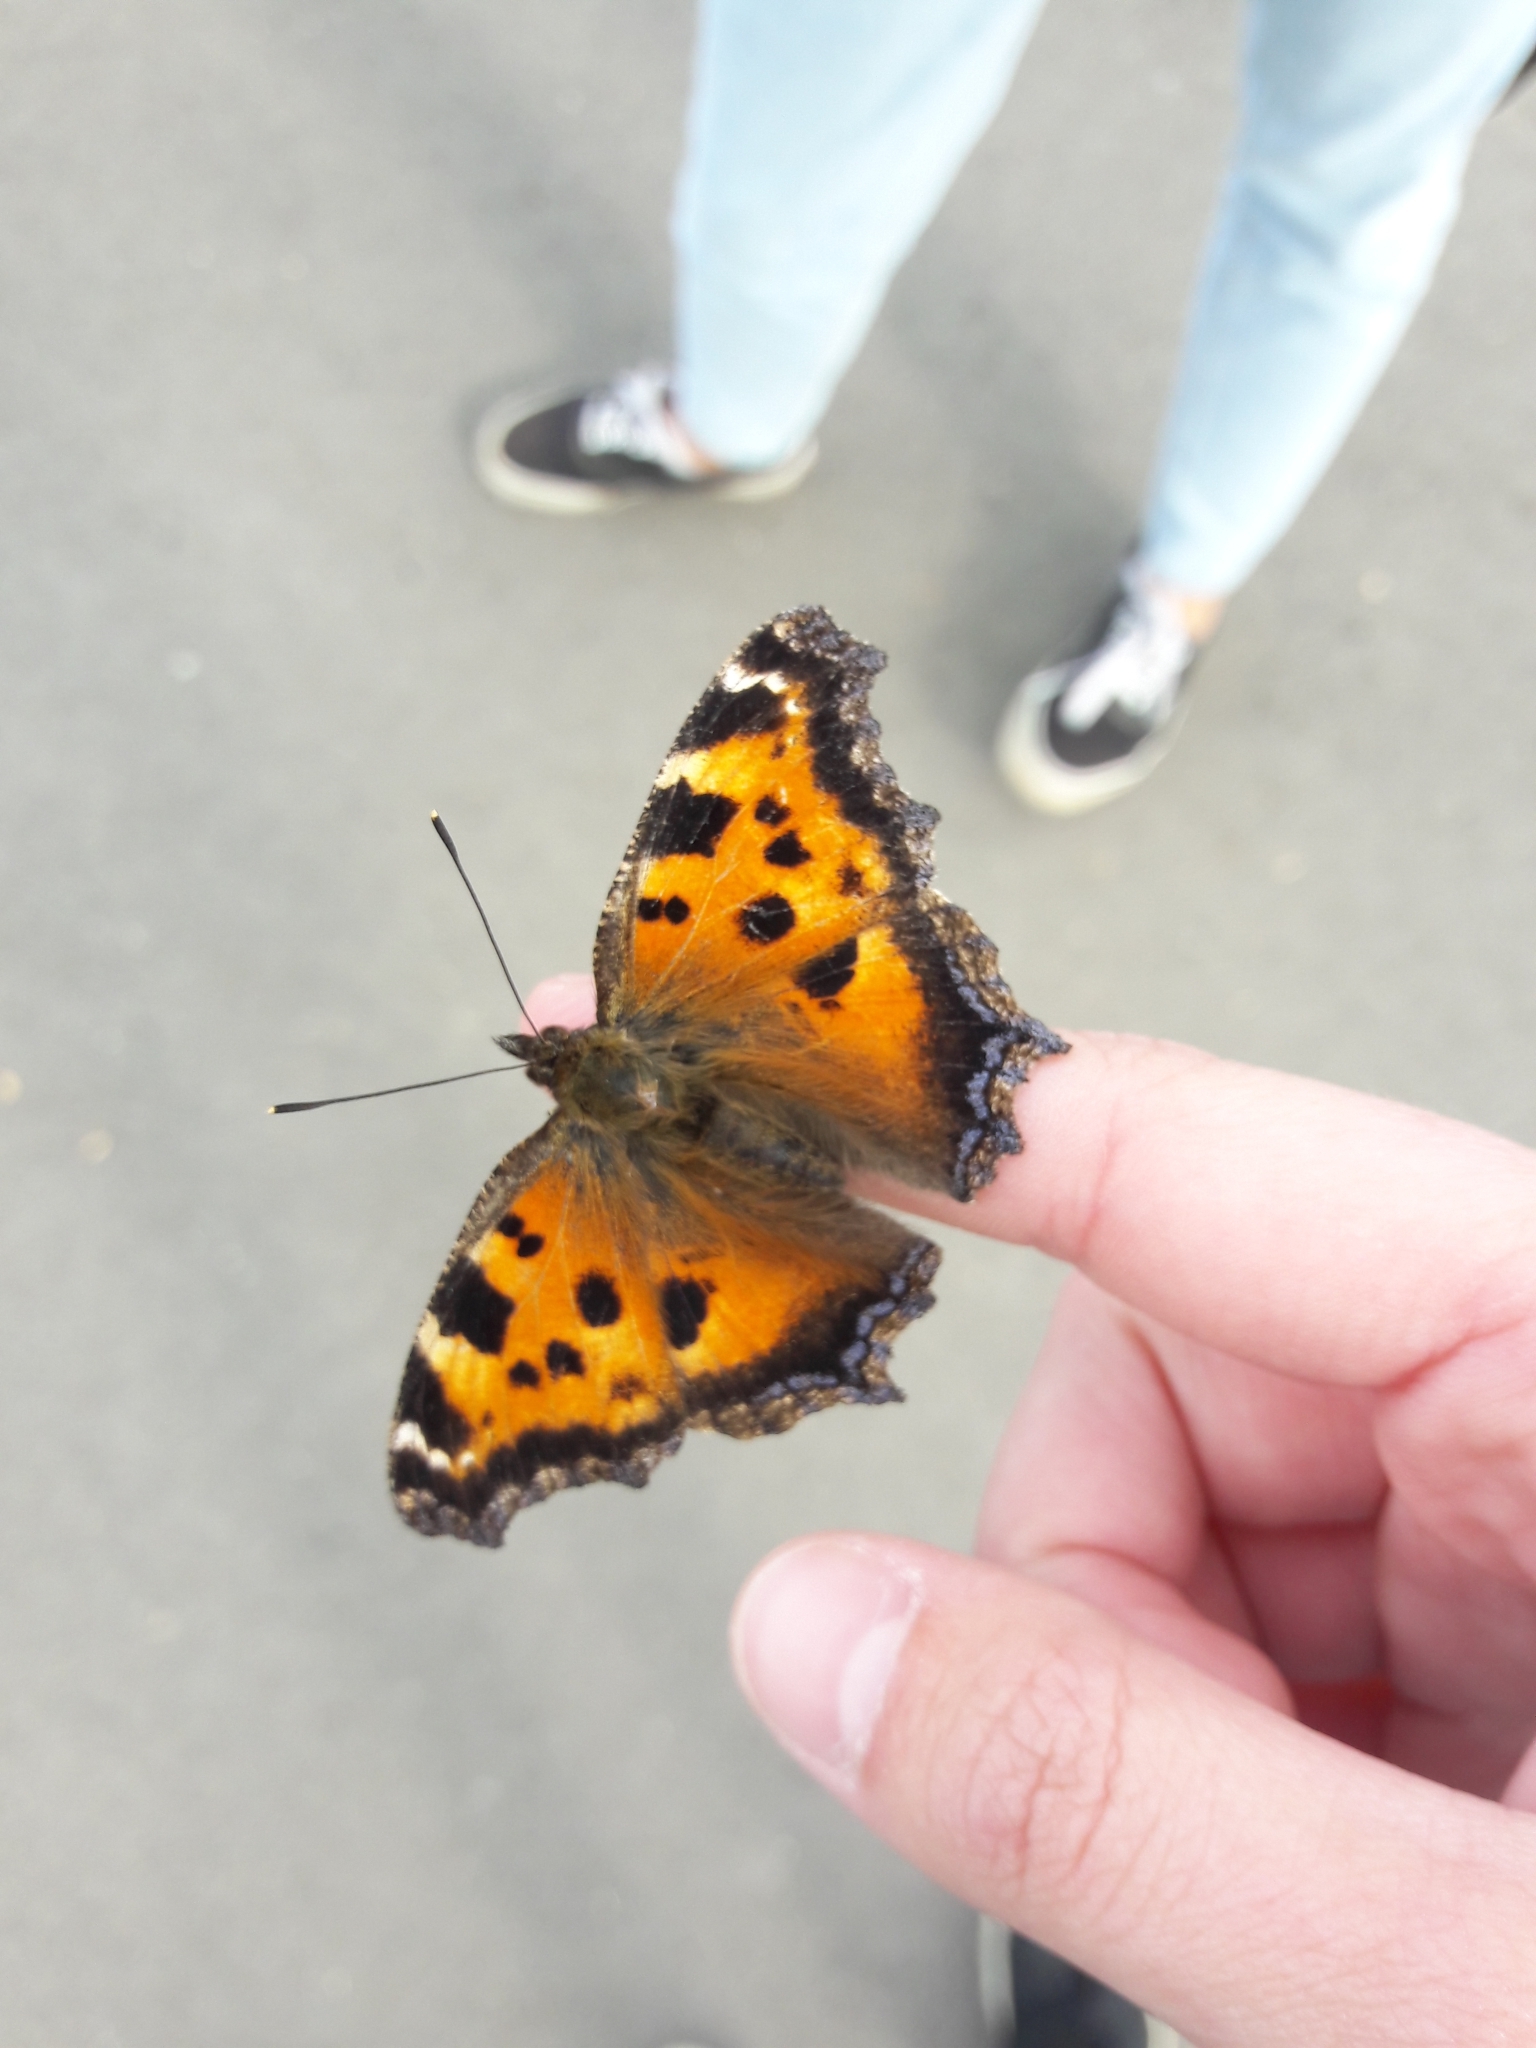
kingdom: Animalia
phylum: Arthropoda
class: Insecta
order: Lepidoptera
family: Nymphalidae
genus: Nymphalis
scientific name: Nymphalis xanthomelas
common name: Scarce tortoiseshell
